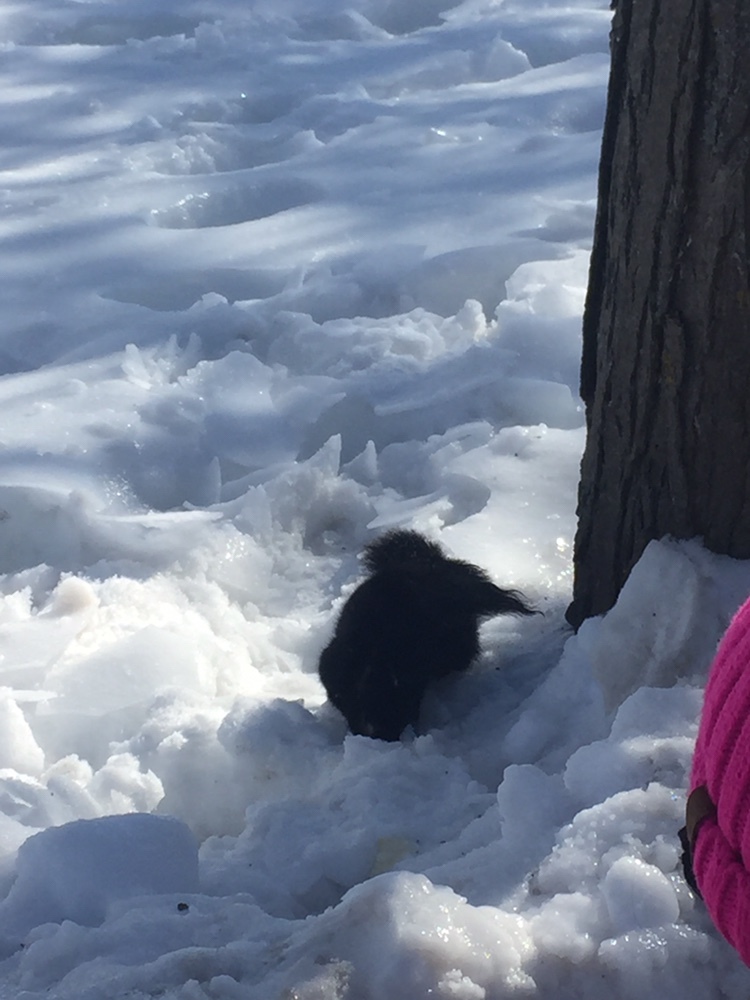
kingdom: Animalia
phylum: Chordata
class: Mammalia
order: Rodentia
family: Sciuridae
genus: Sciurus
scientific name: Sciurus carolinensis
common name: Eastern gray squirrel
